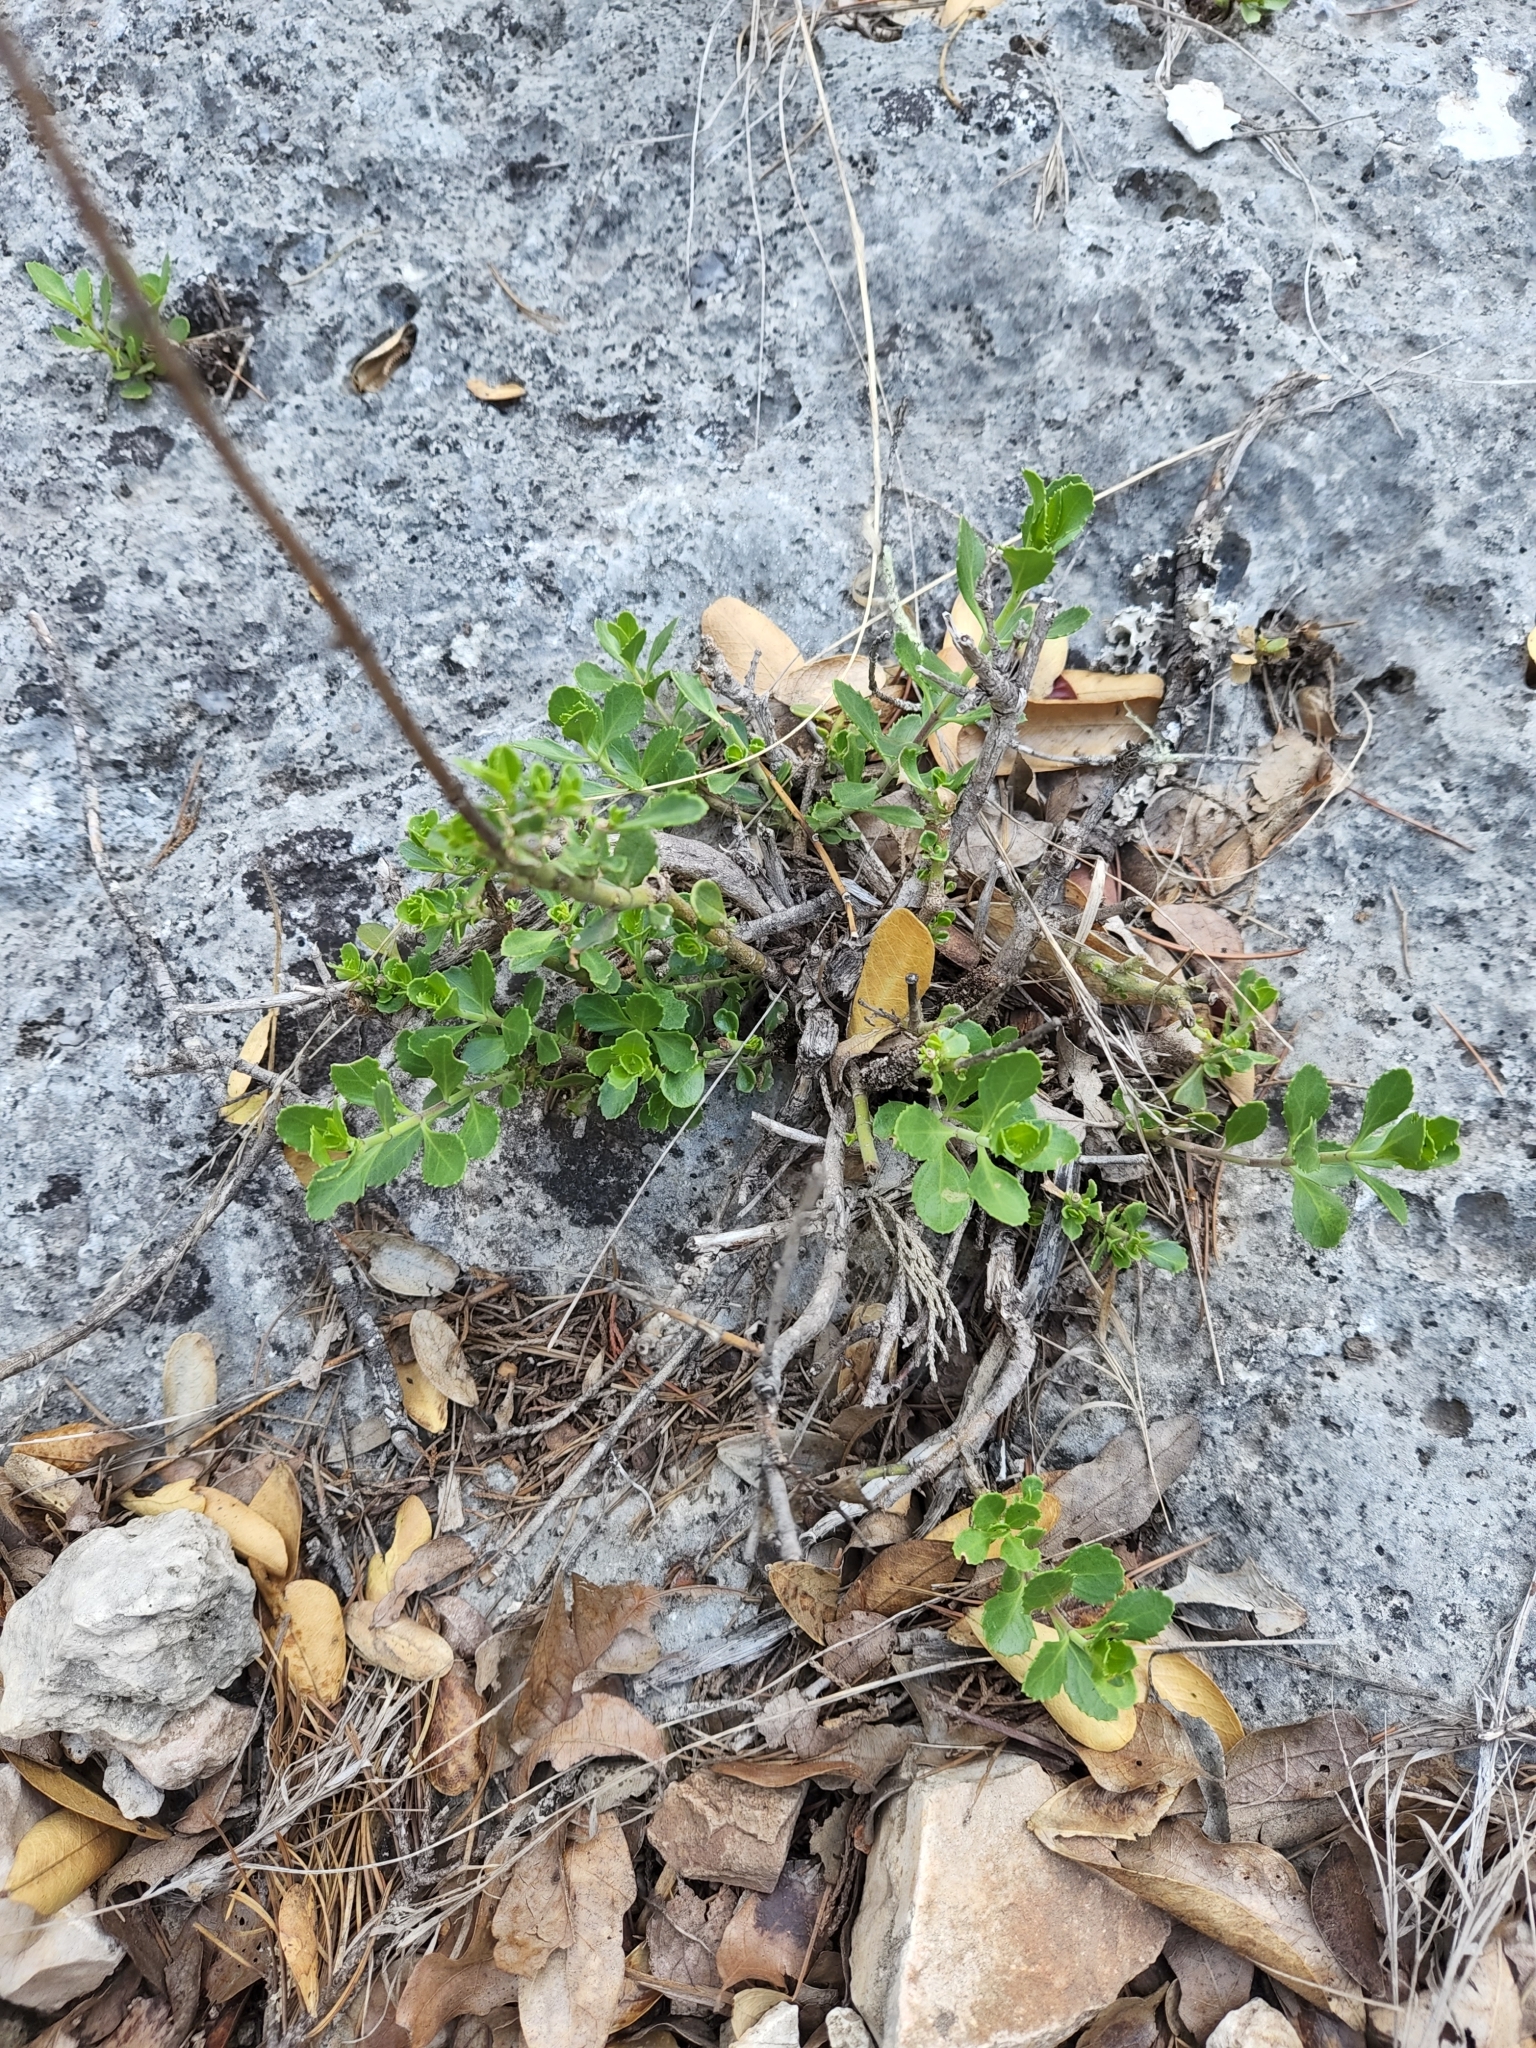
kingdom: Plantae
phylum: Tracheophyta
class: Magnoliopsida
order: Lamiales
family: Plantaginaceae
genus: Penstemon
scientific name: Penstemon baccharifolius
